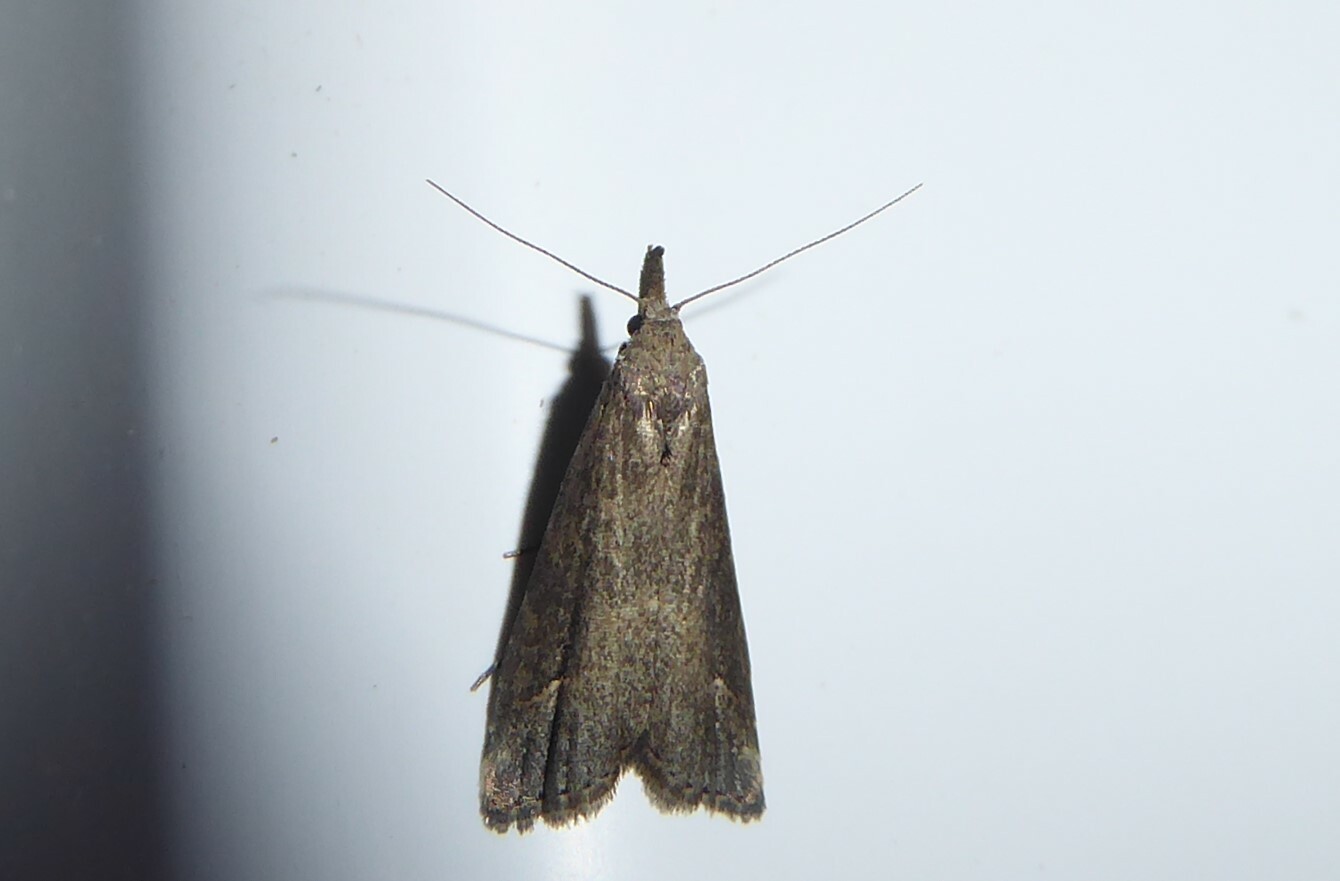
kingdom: Animalia
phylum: Arthropoda
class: Insecta
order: Lepidoptera
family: Erebidae
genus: Schrankia
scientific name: Schrankia costaestrigalis
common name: Pinion-streaked snout
